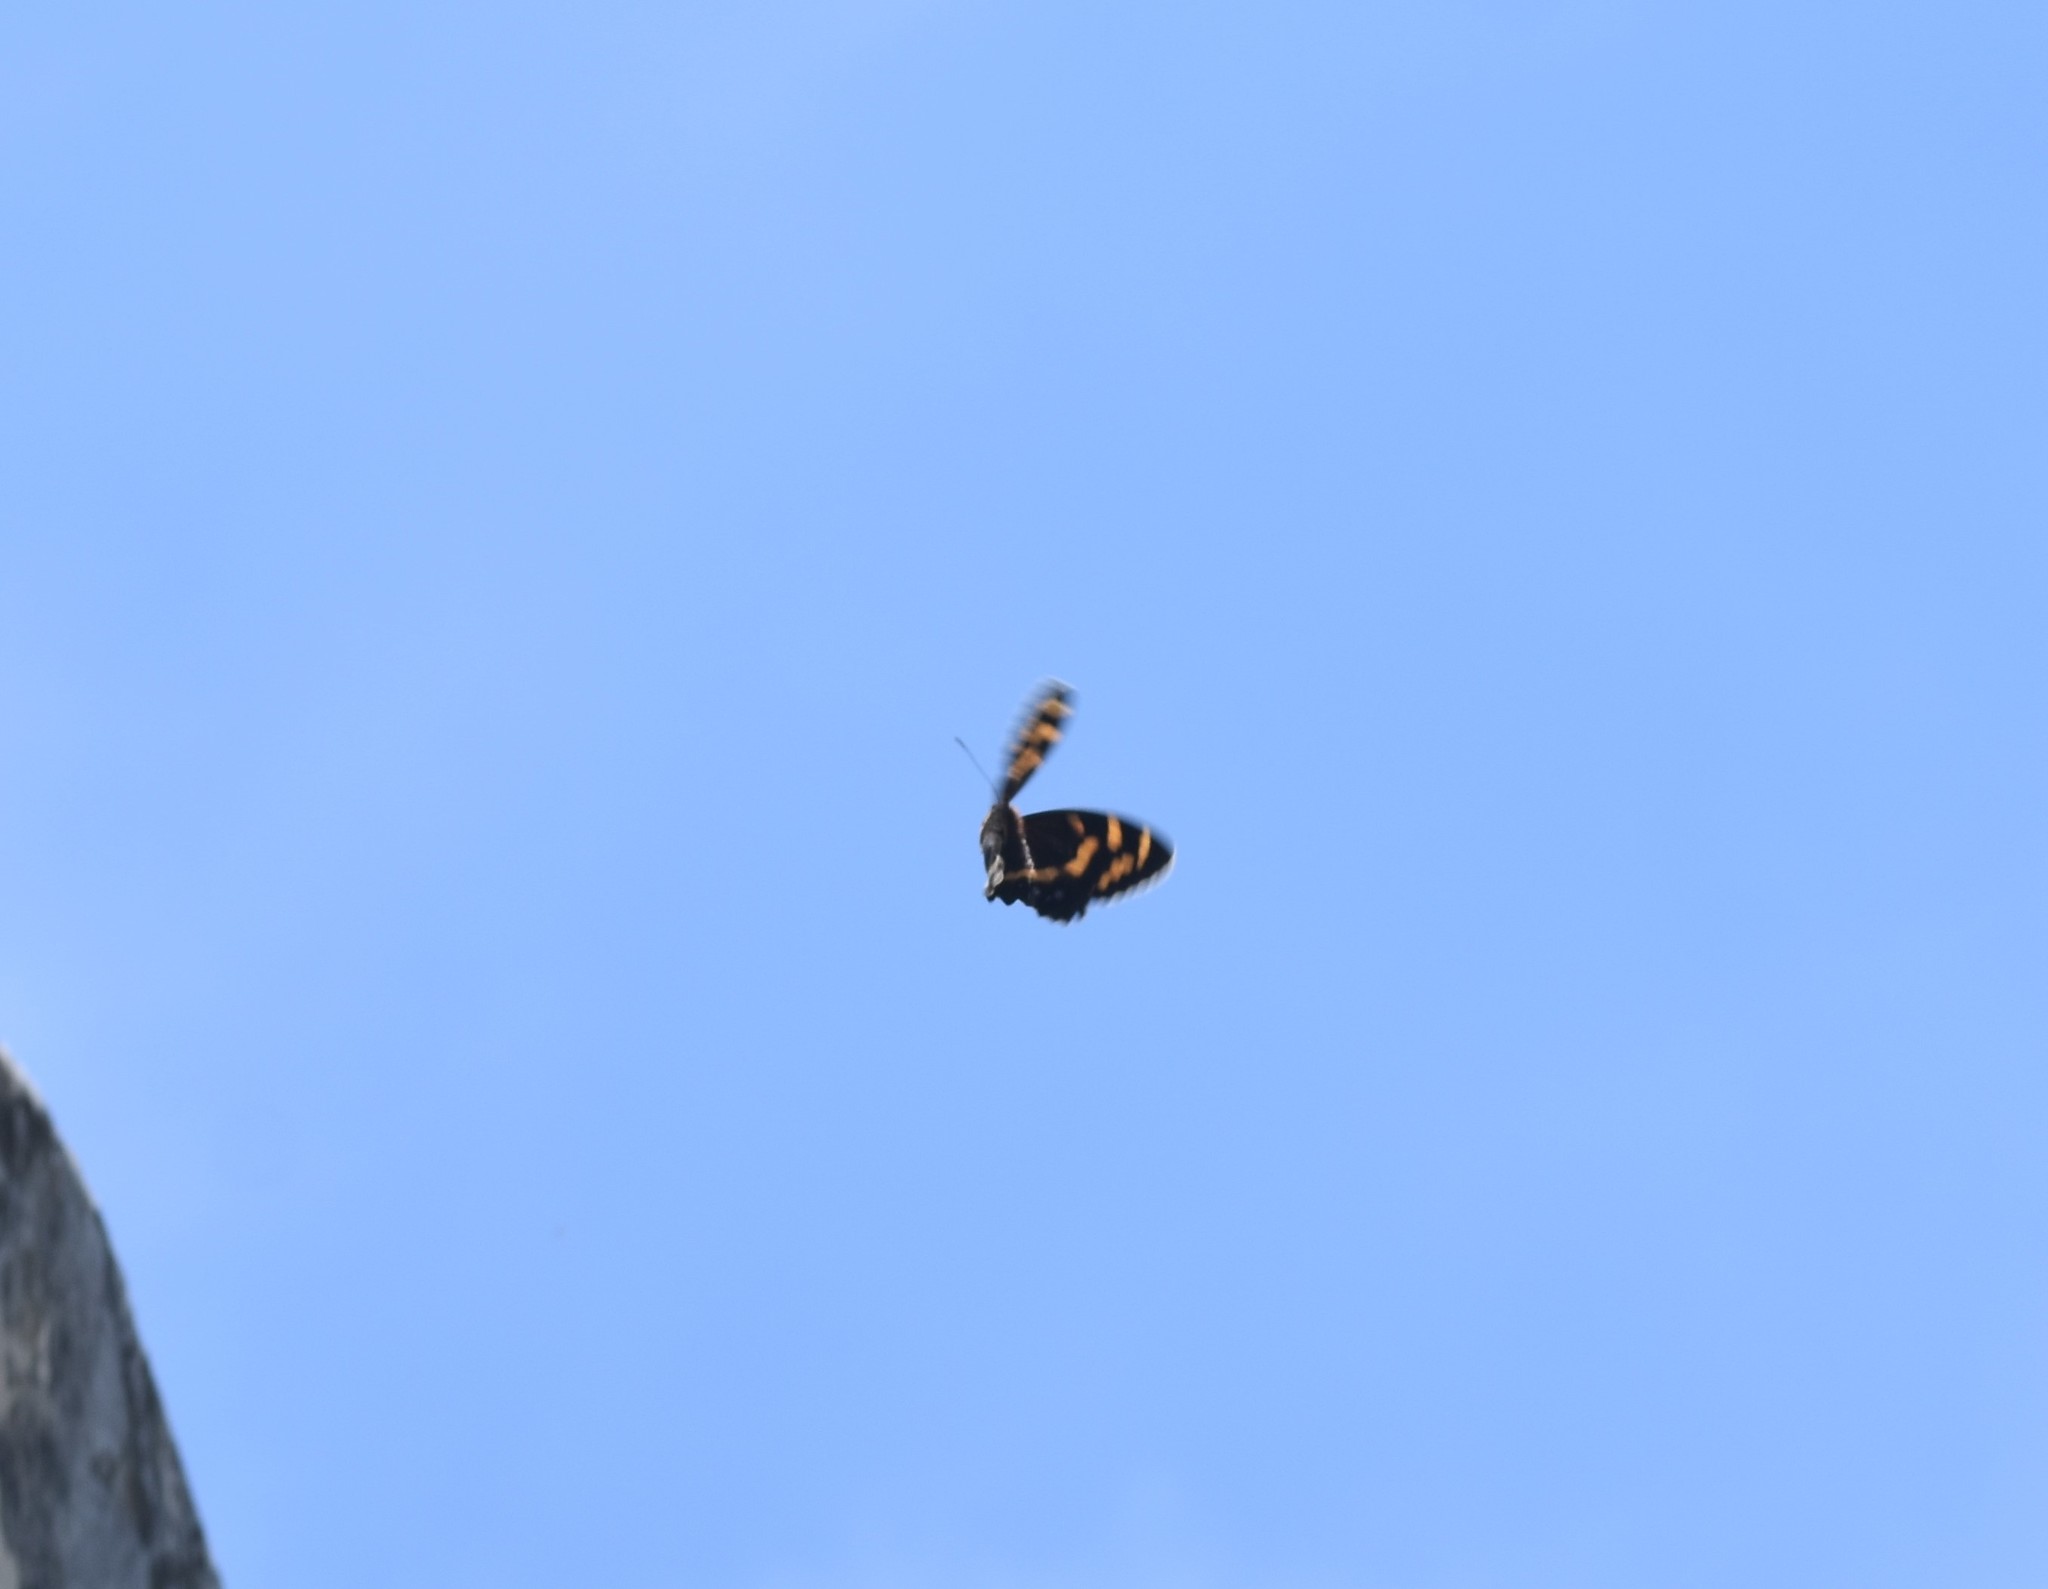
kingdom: Animalia
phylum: Arthropoda
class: Insecta
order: Lepidoptera
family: Nymphalidae
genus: Meneris
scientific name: Meneris Aeropetes tulbaghia
